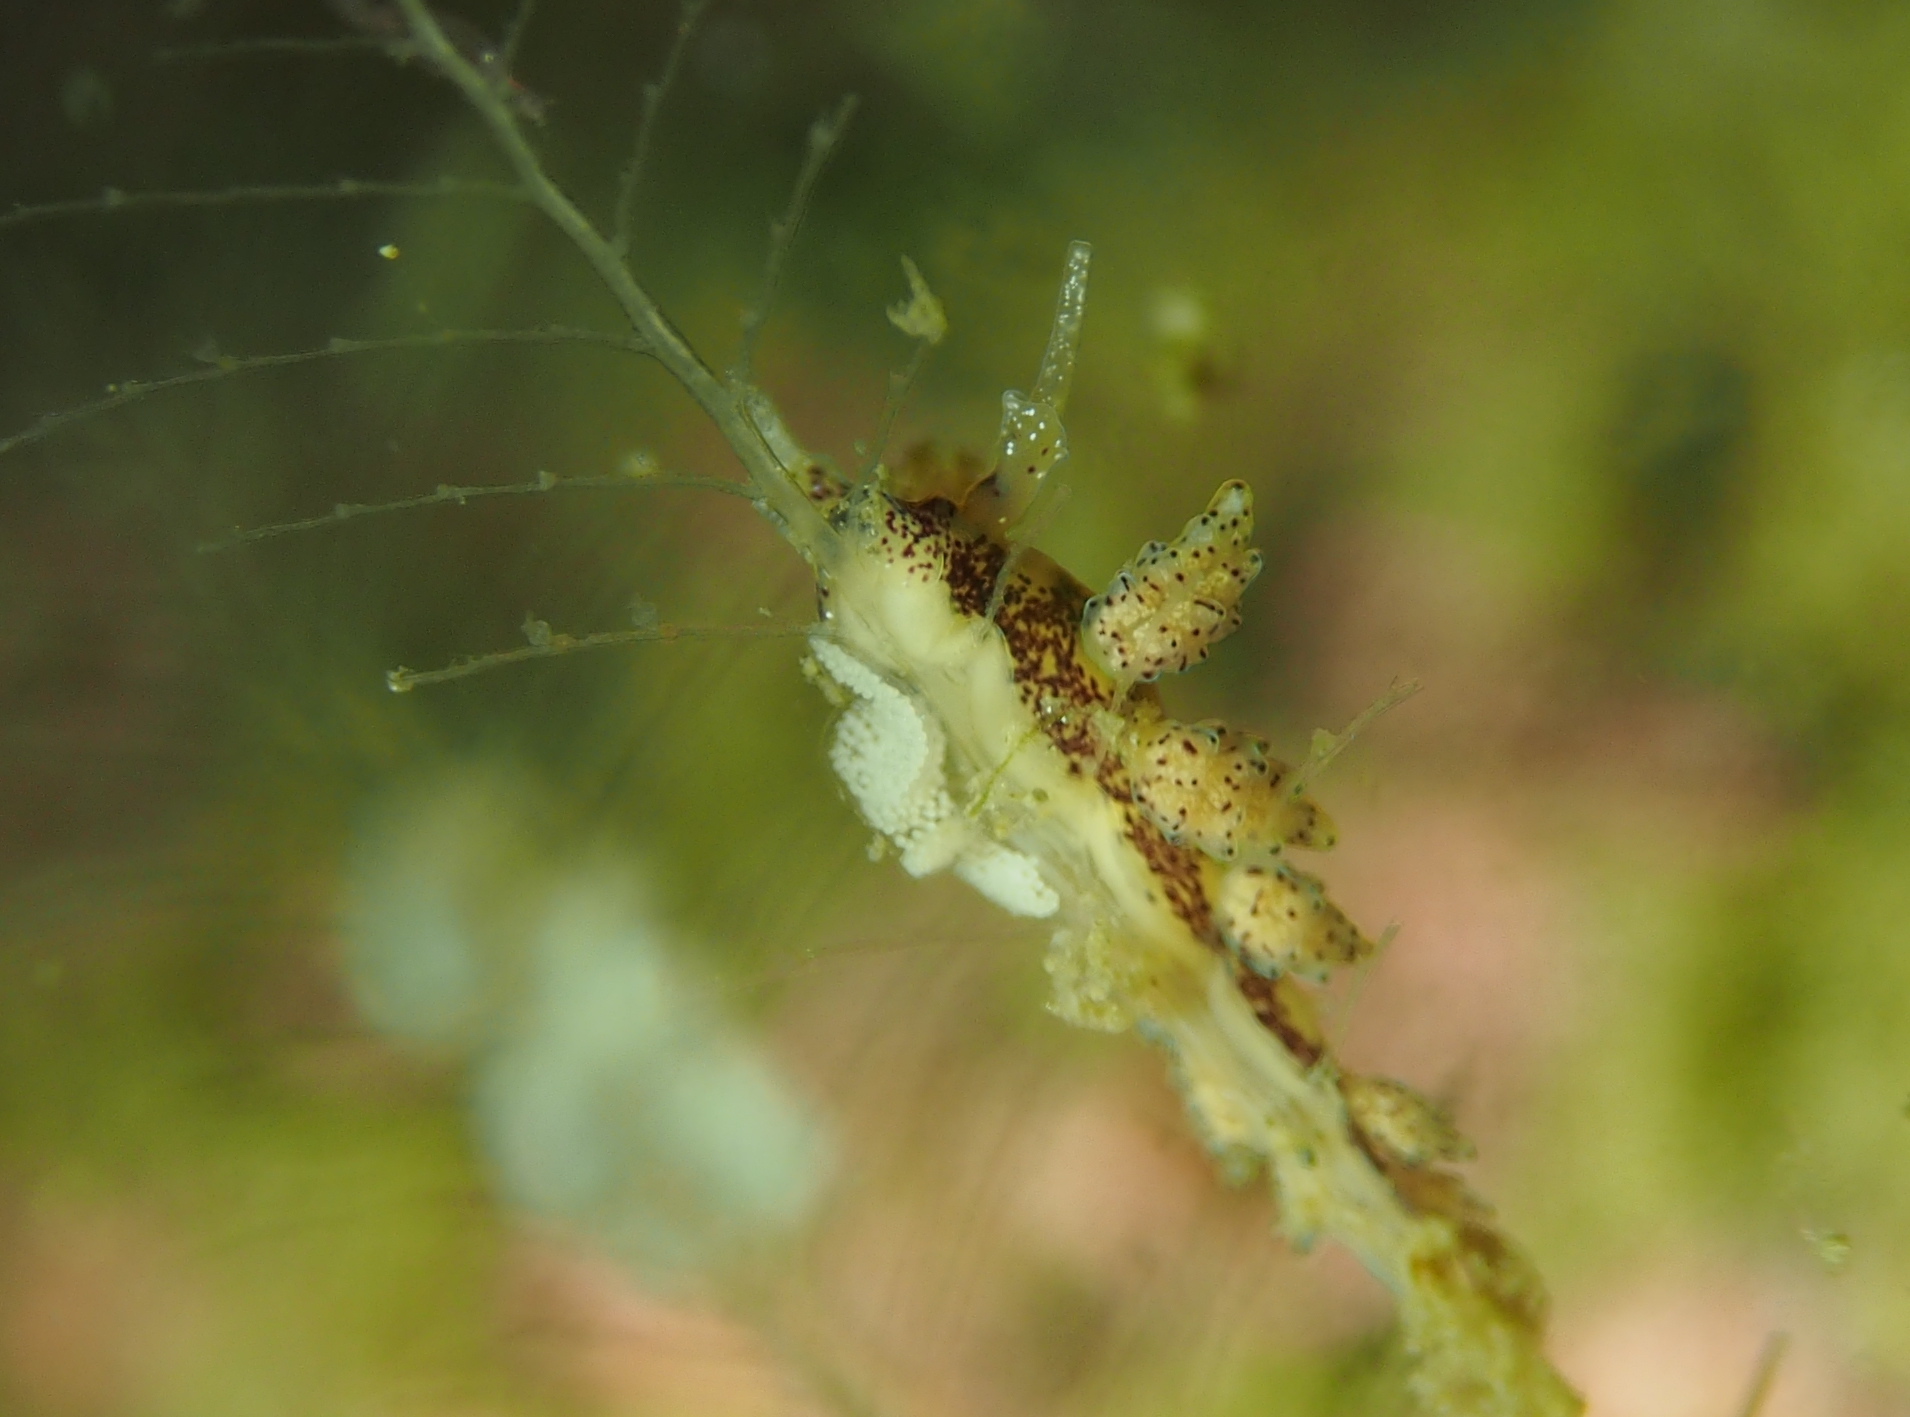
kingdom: Animalia
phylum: Mollusca
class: Gastropoda
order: Nudibranchia
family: Dotidae
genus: Doto
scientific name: Doto dunnei
